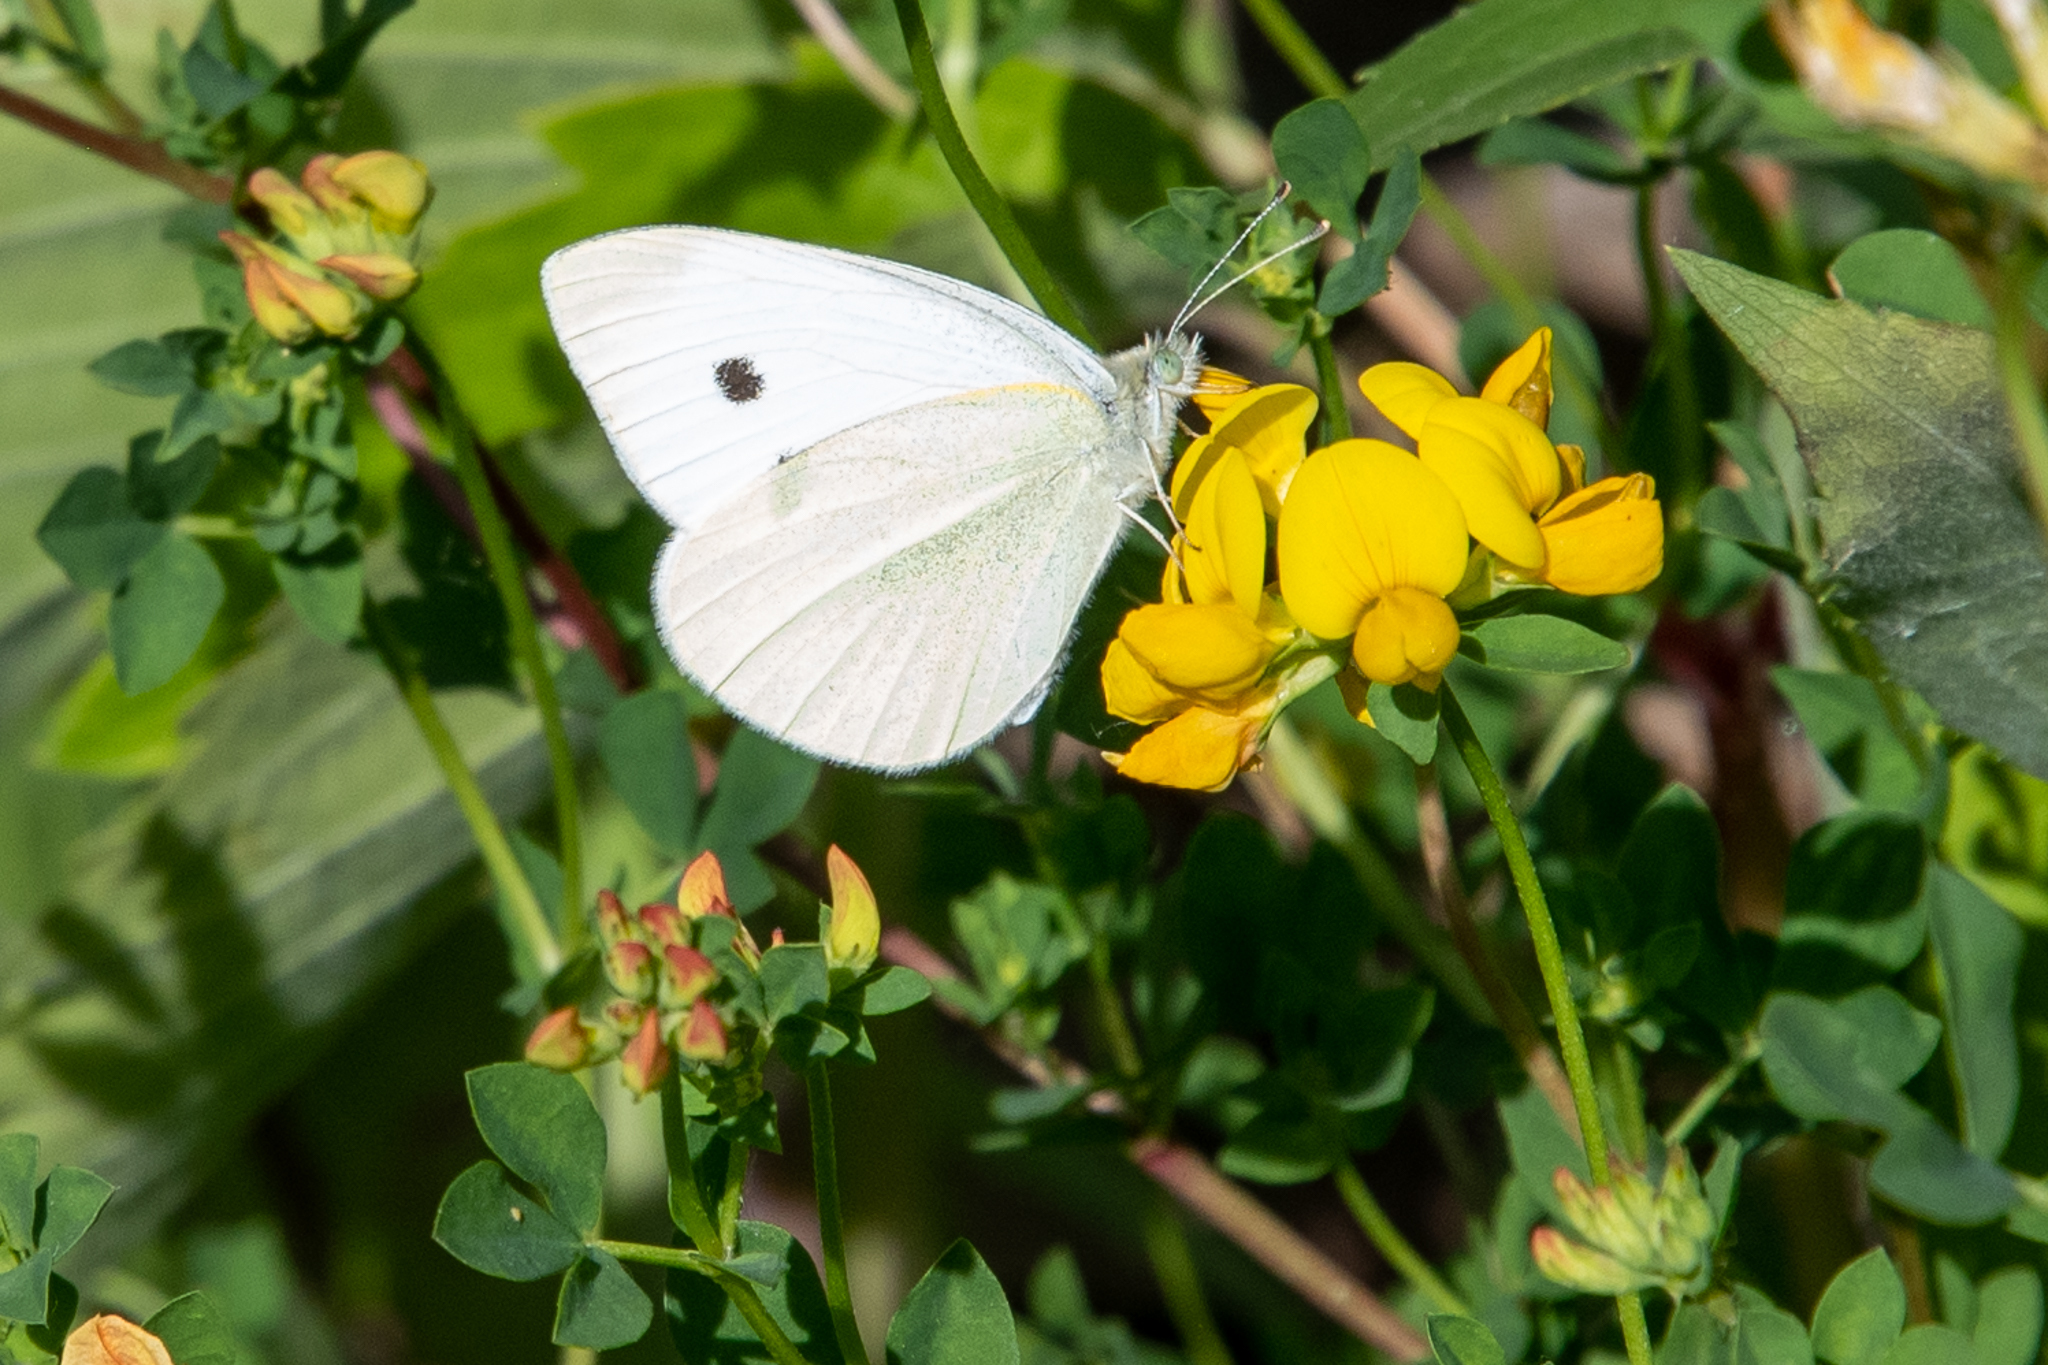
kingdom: Animalia
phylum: Arthropoda
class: Insecta
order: Lepidoptera
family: Pieridae
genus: Pieris
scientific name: Pieris rapae
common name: Small white
